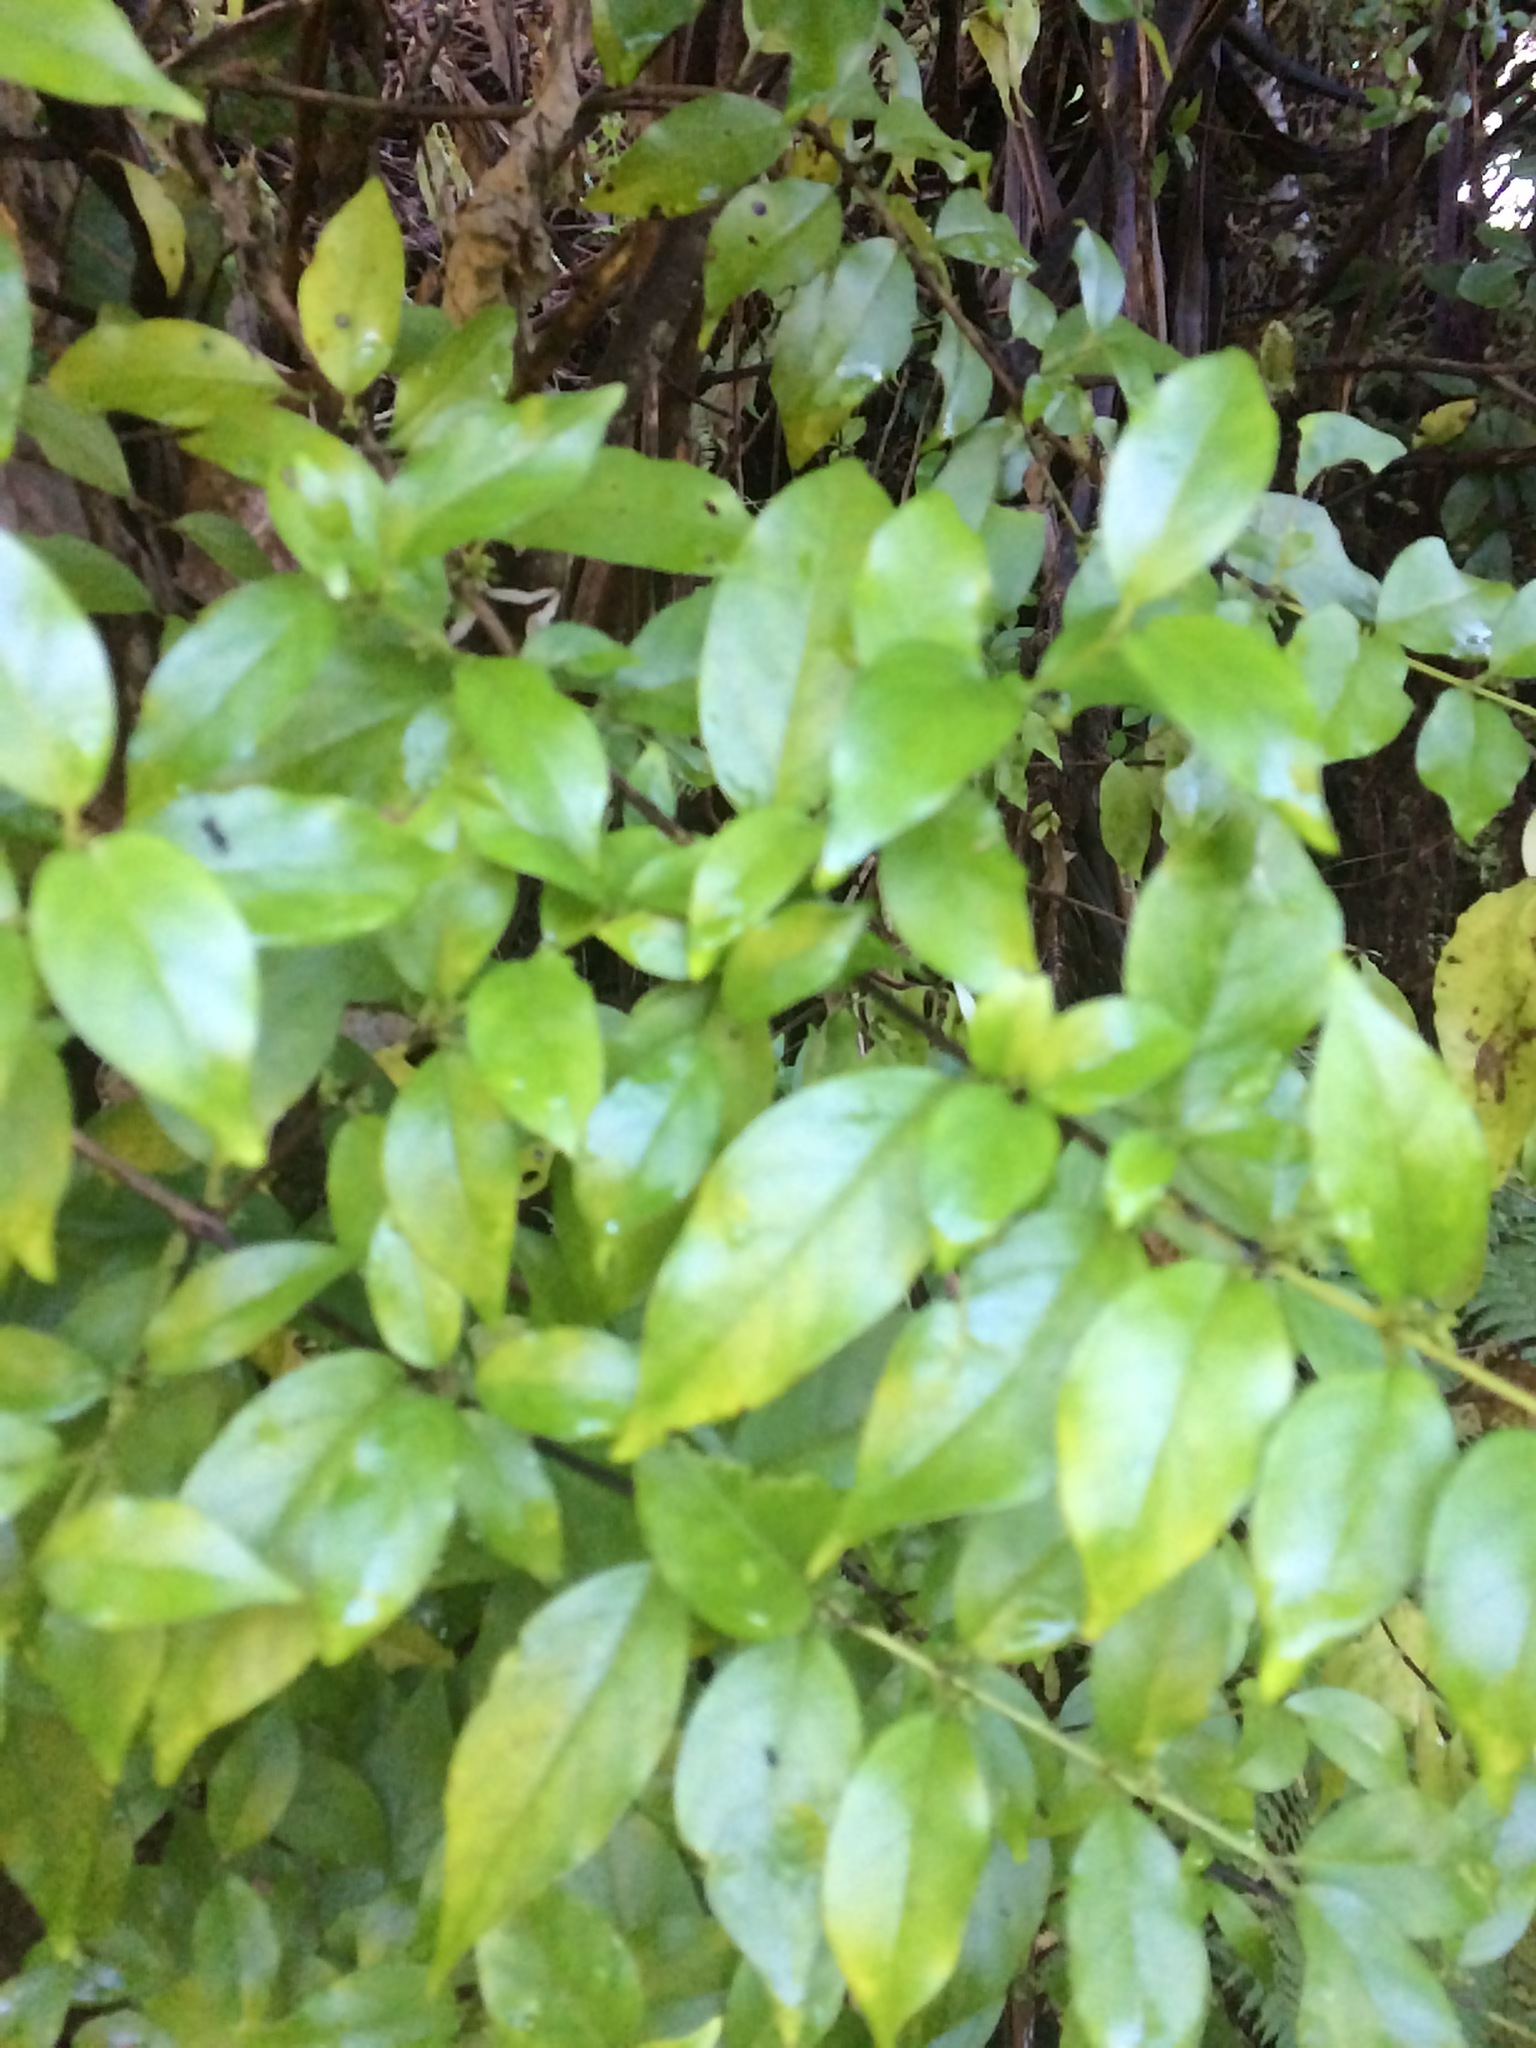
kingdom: Plantae
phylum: Tracheophyta
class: Magnoliopsida
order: Gentianales
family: Loganiaceae
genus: Geniostoma
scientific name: Geniostoma ligustrifolium
